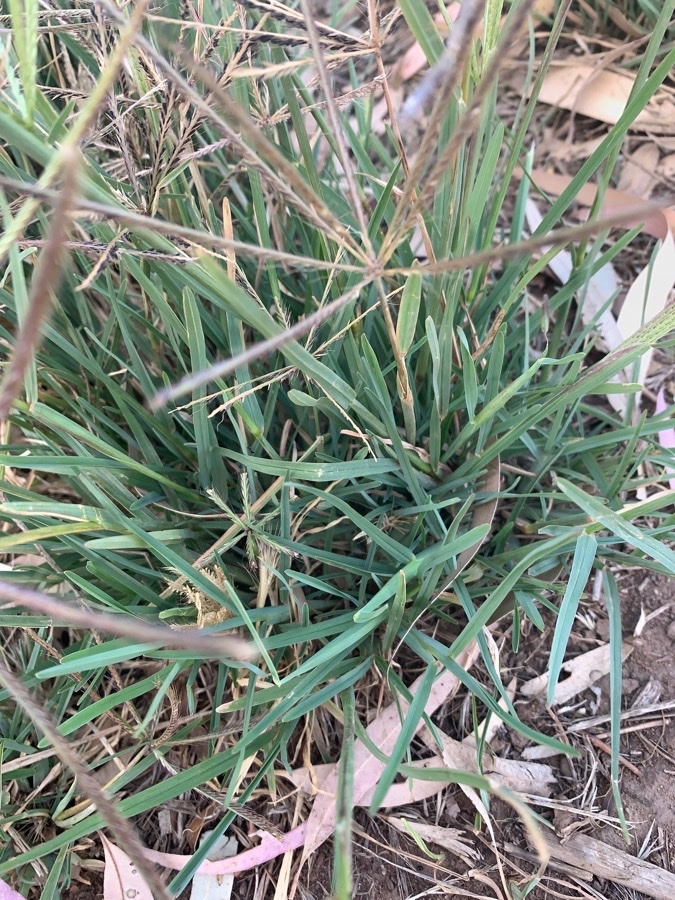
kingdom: Plantae
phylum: Tracheophyta
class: Liliopsida
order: Poales
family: Poaceae
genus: Chloris
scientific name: Chloris truncata
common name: Windmill-grass
